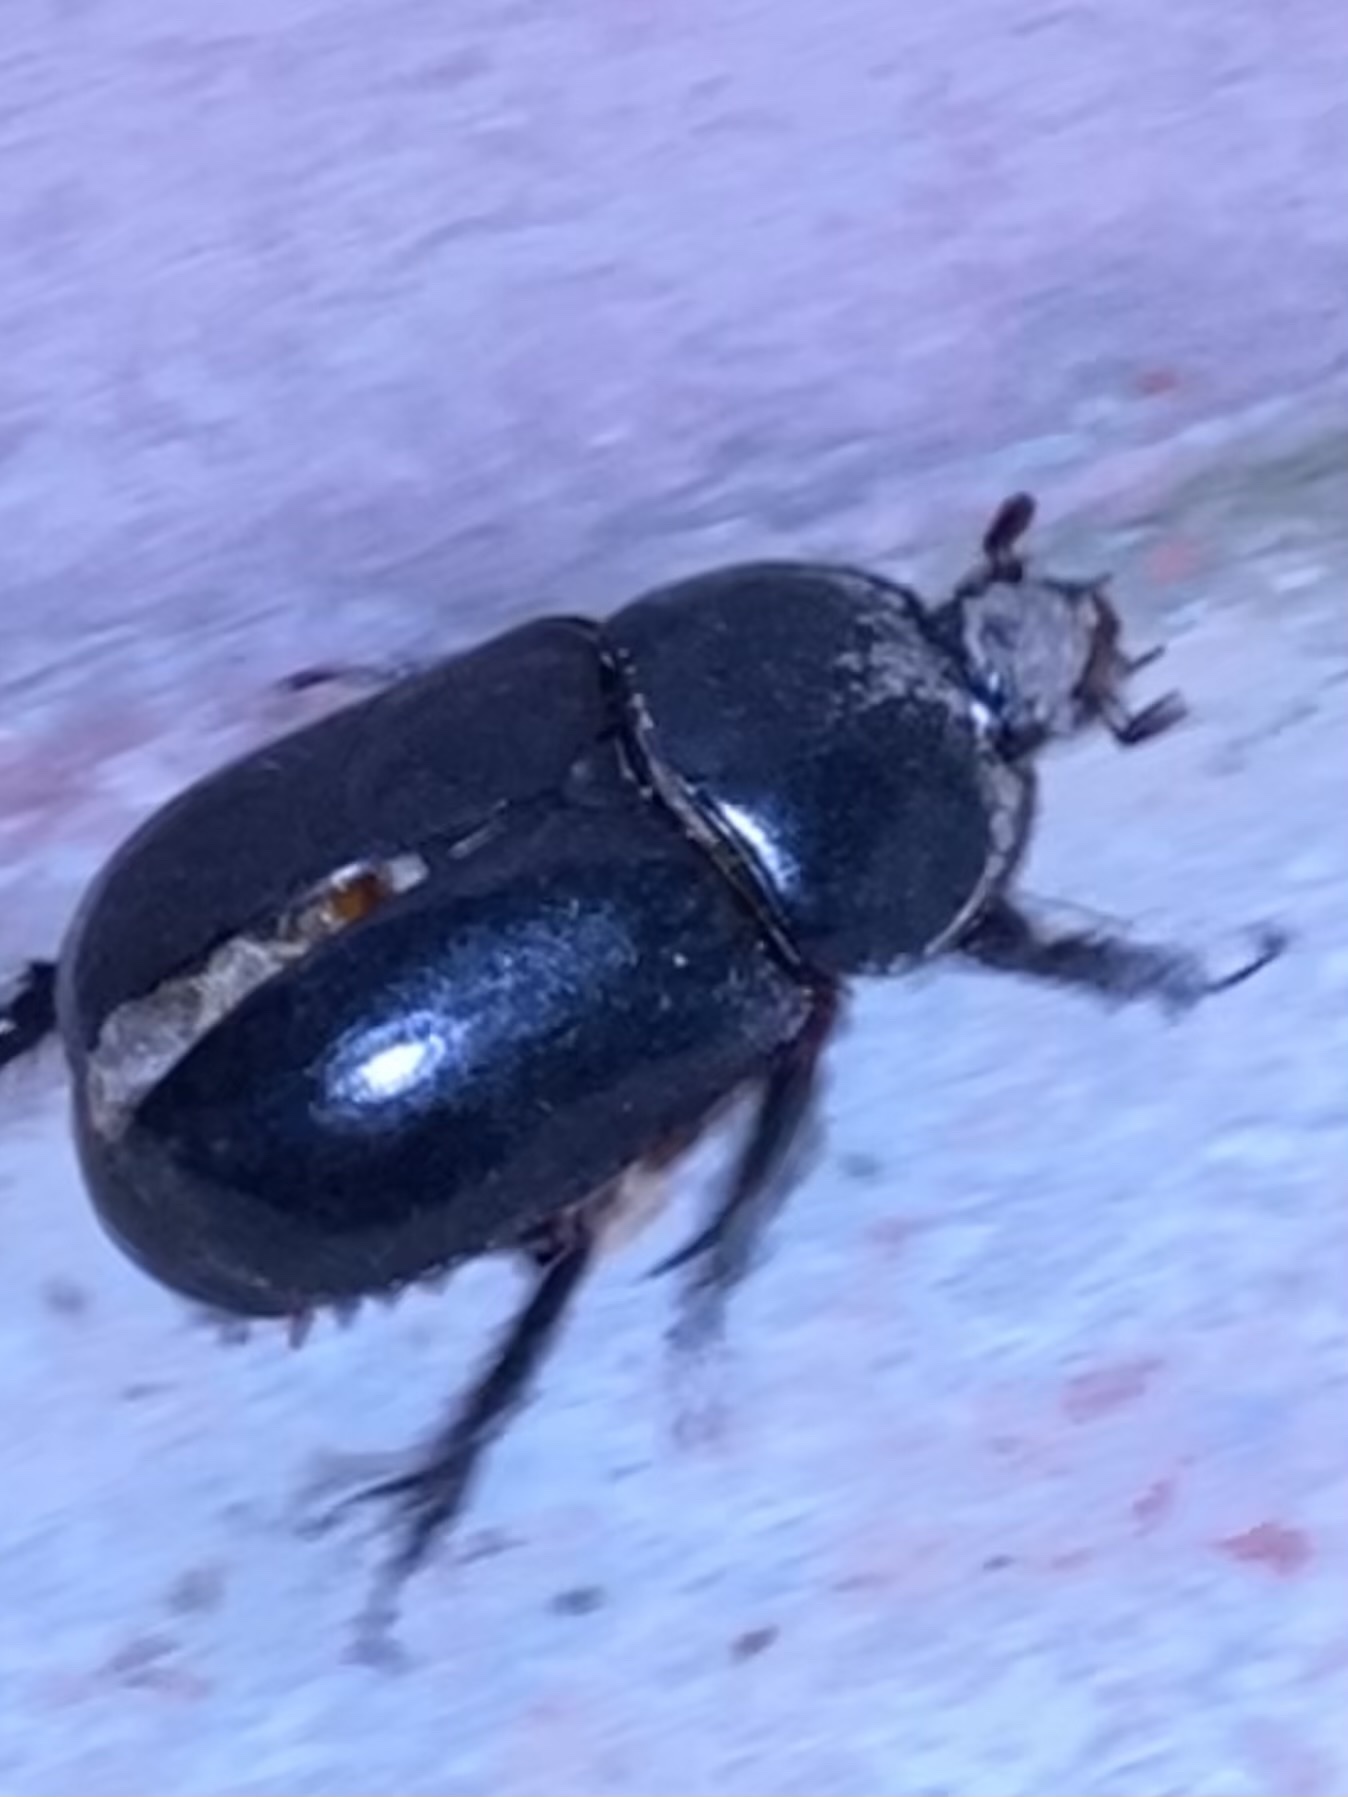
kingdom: Animalia
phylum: Arthropoda
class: Insecta
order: Coleoptera
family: Scarabaeidae
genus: Xyloryctes
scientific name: Xyloryctes
